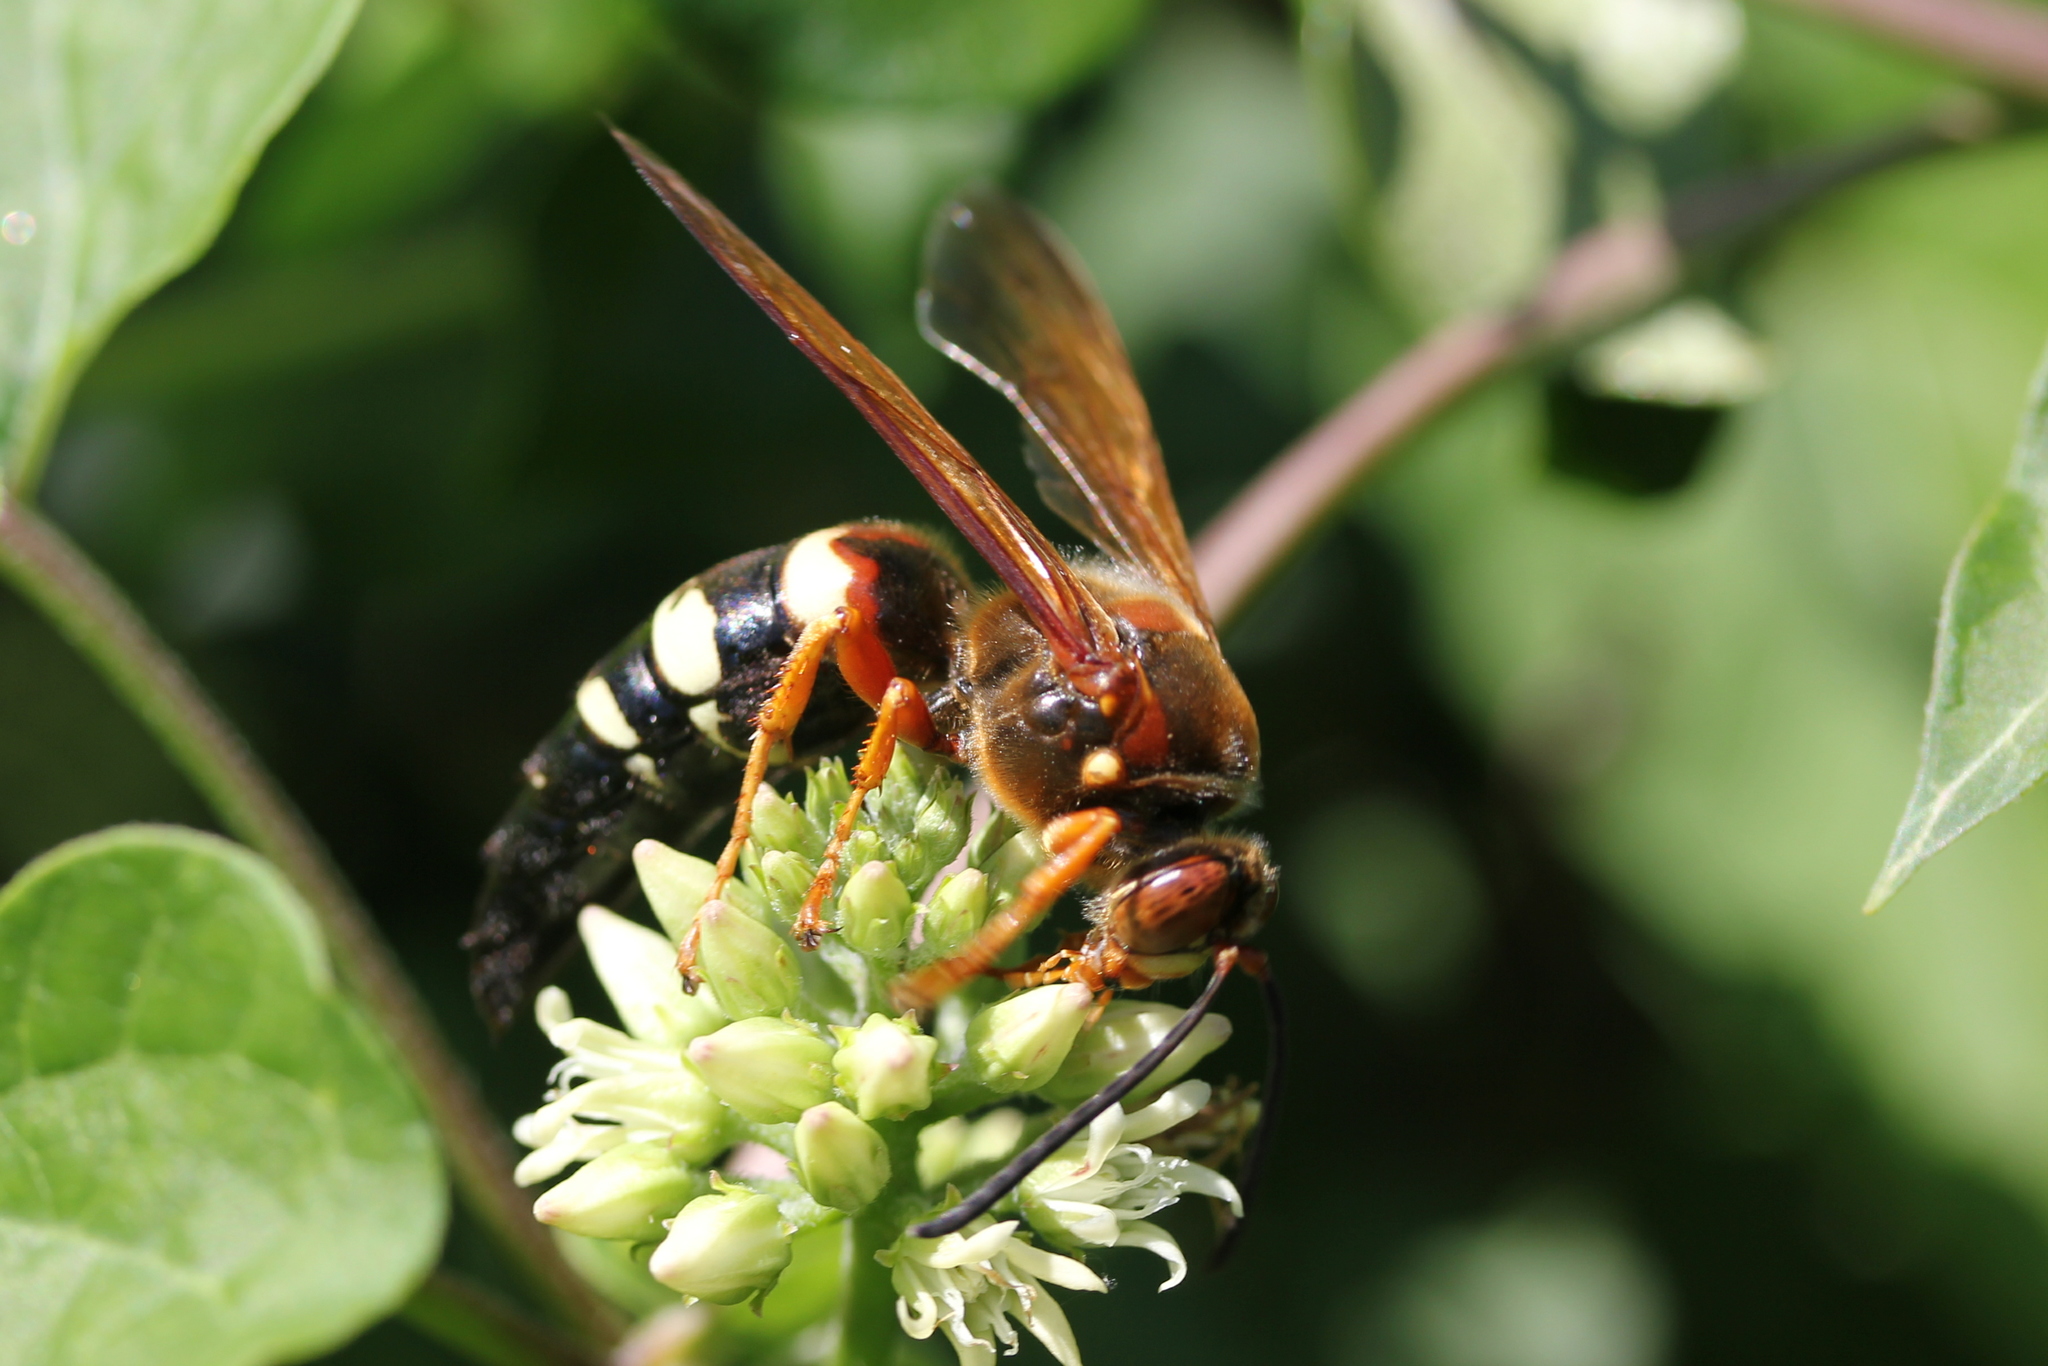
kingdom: Animalia
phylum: Arthropoda
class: Insecta
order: Hymenoptera
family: Crabronidae
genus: Sphecius
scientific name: Sphecius speciosus
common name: Cicada killer
